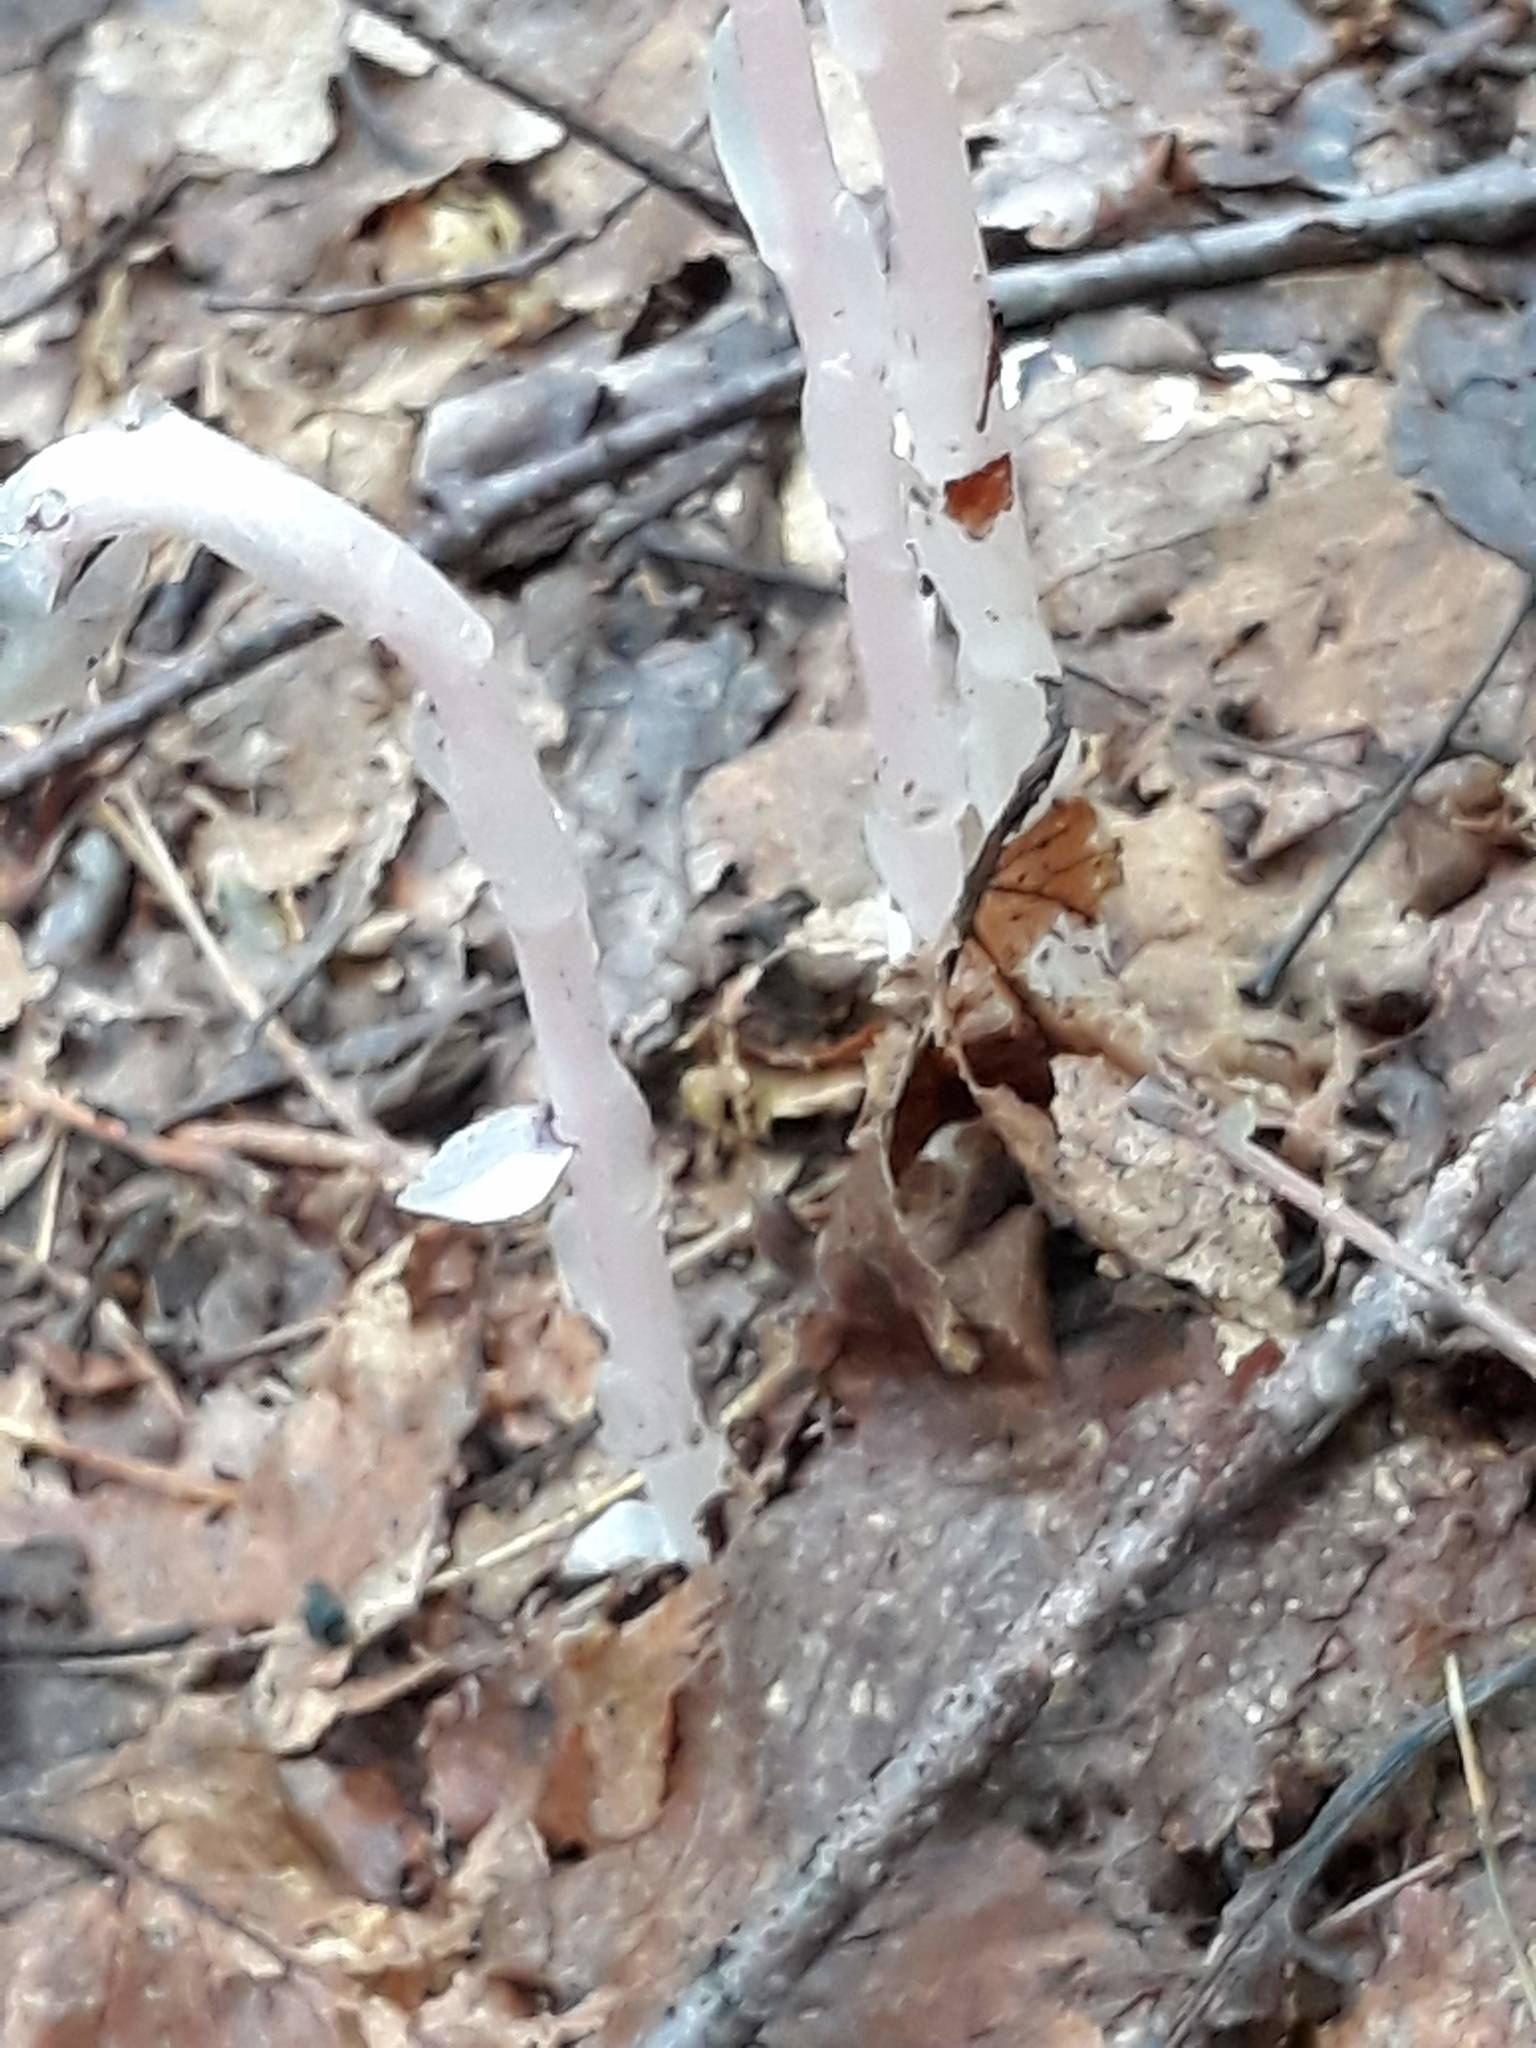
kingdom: Plantae
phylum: Tracheophyta
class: Magnoliopsida
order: Ericales
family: Ericaceae
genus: Monotropa
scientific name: Monotropa uniflora
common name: Convulsion root
